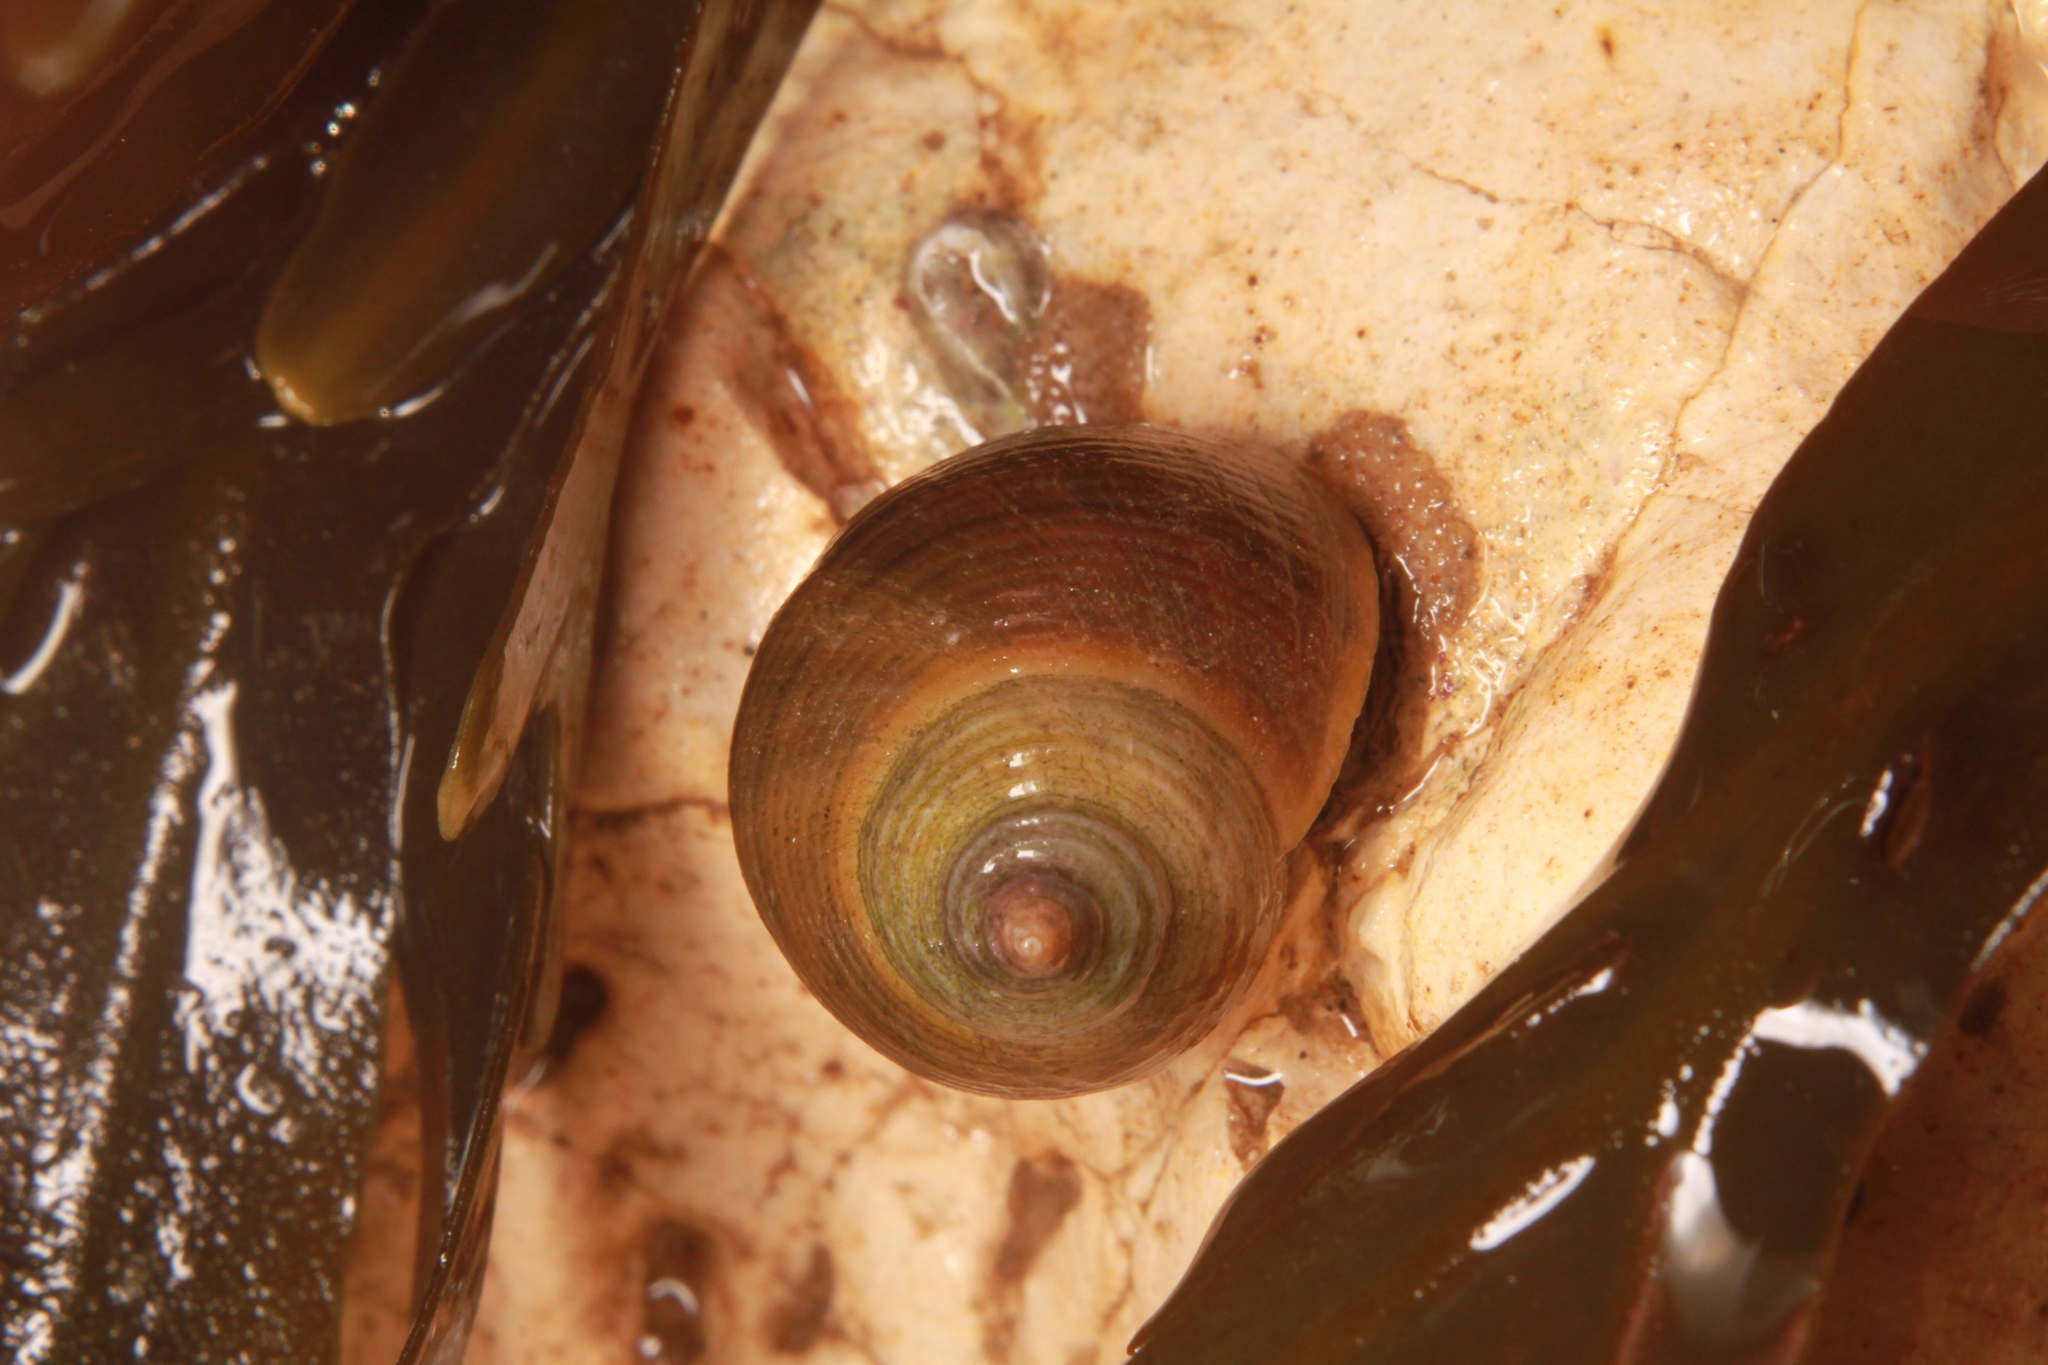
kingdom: Animalia
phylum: Mollusca
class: Gastropoda
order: Littorinimorpha
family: Littorinidae
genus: Littorina
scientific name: Littorina
